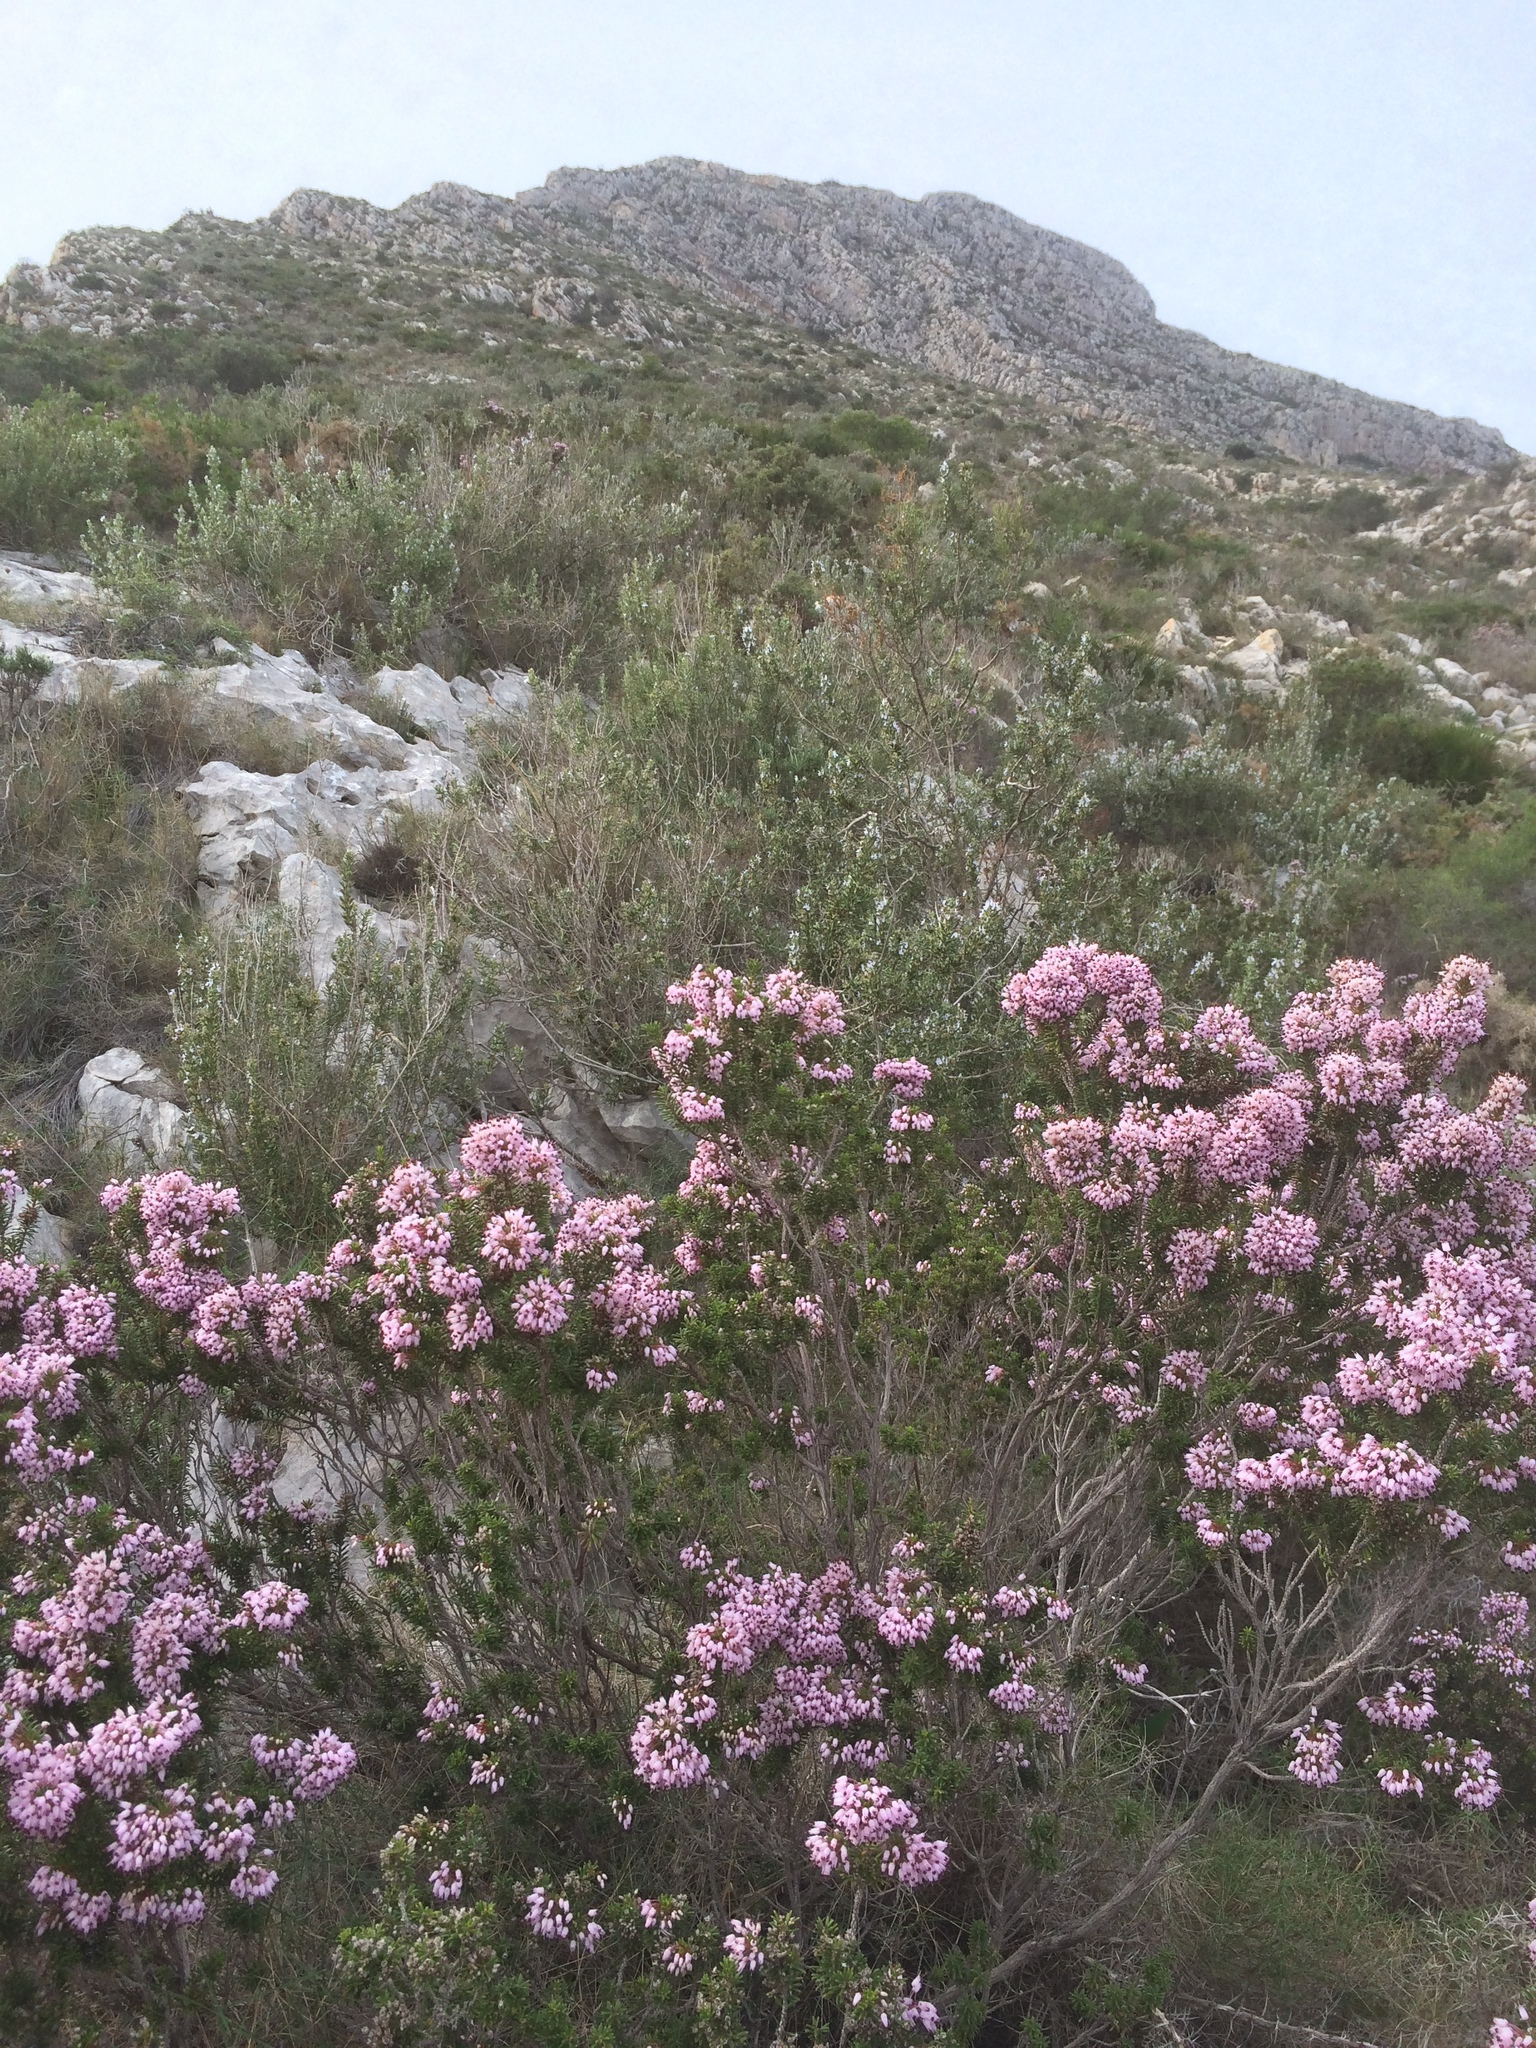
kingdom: Plantae
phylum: Tracheophyta
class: Magnoliopsida
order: Ericales
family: Ericaceae
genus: Erica
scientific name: Erica multiflora
